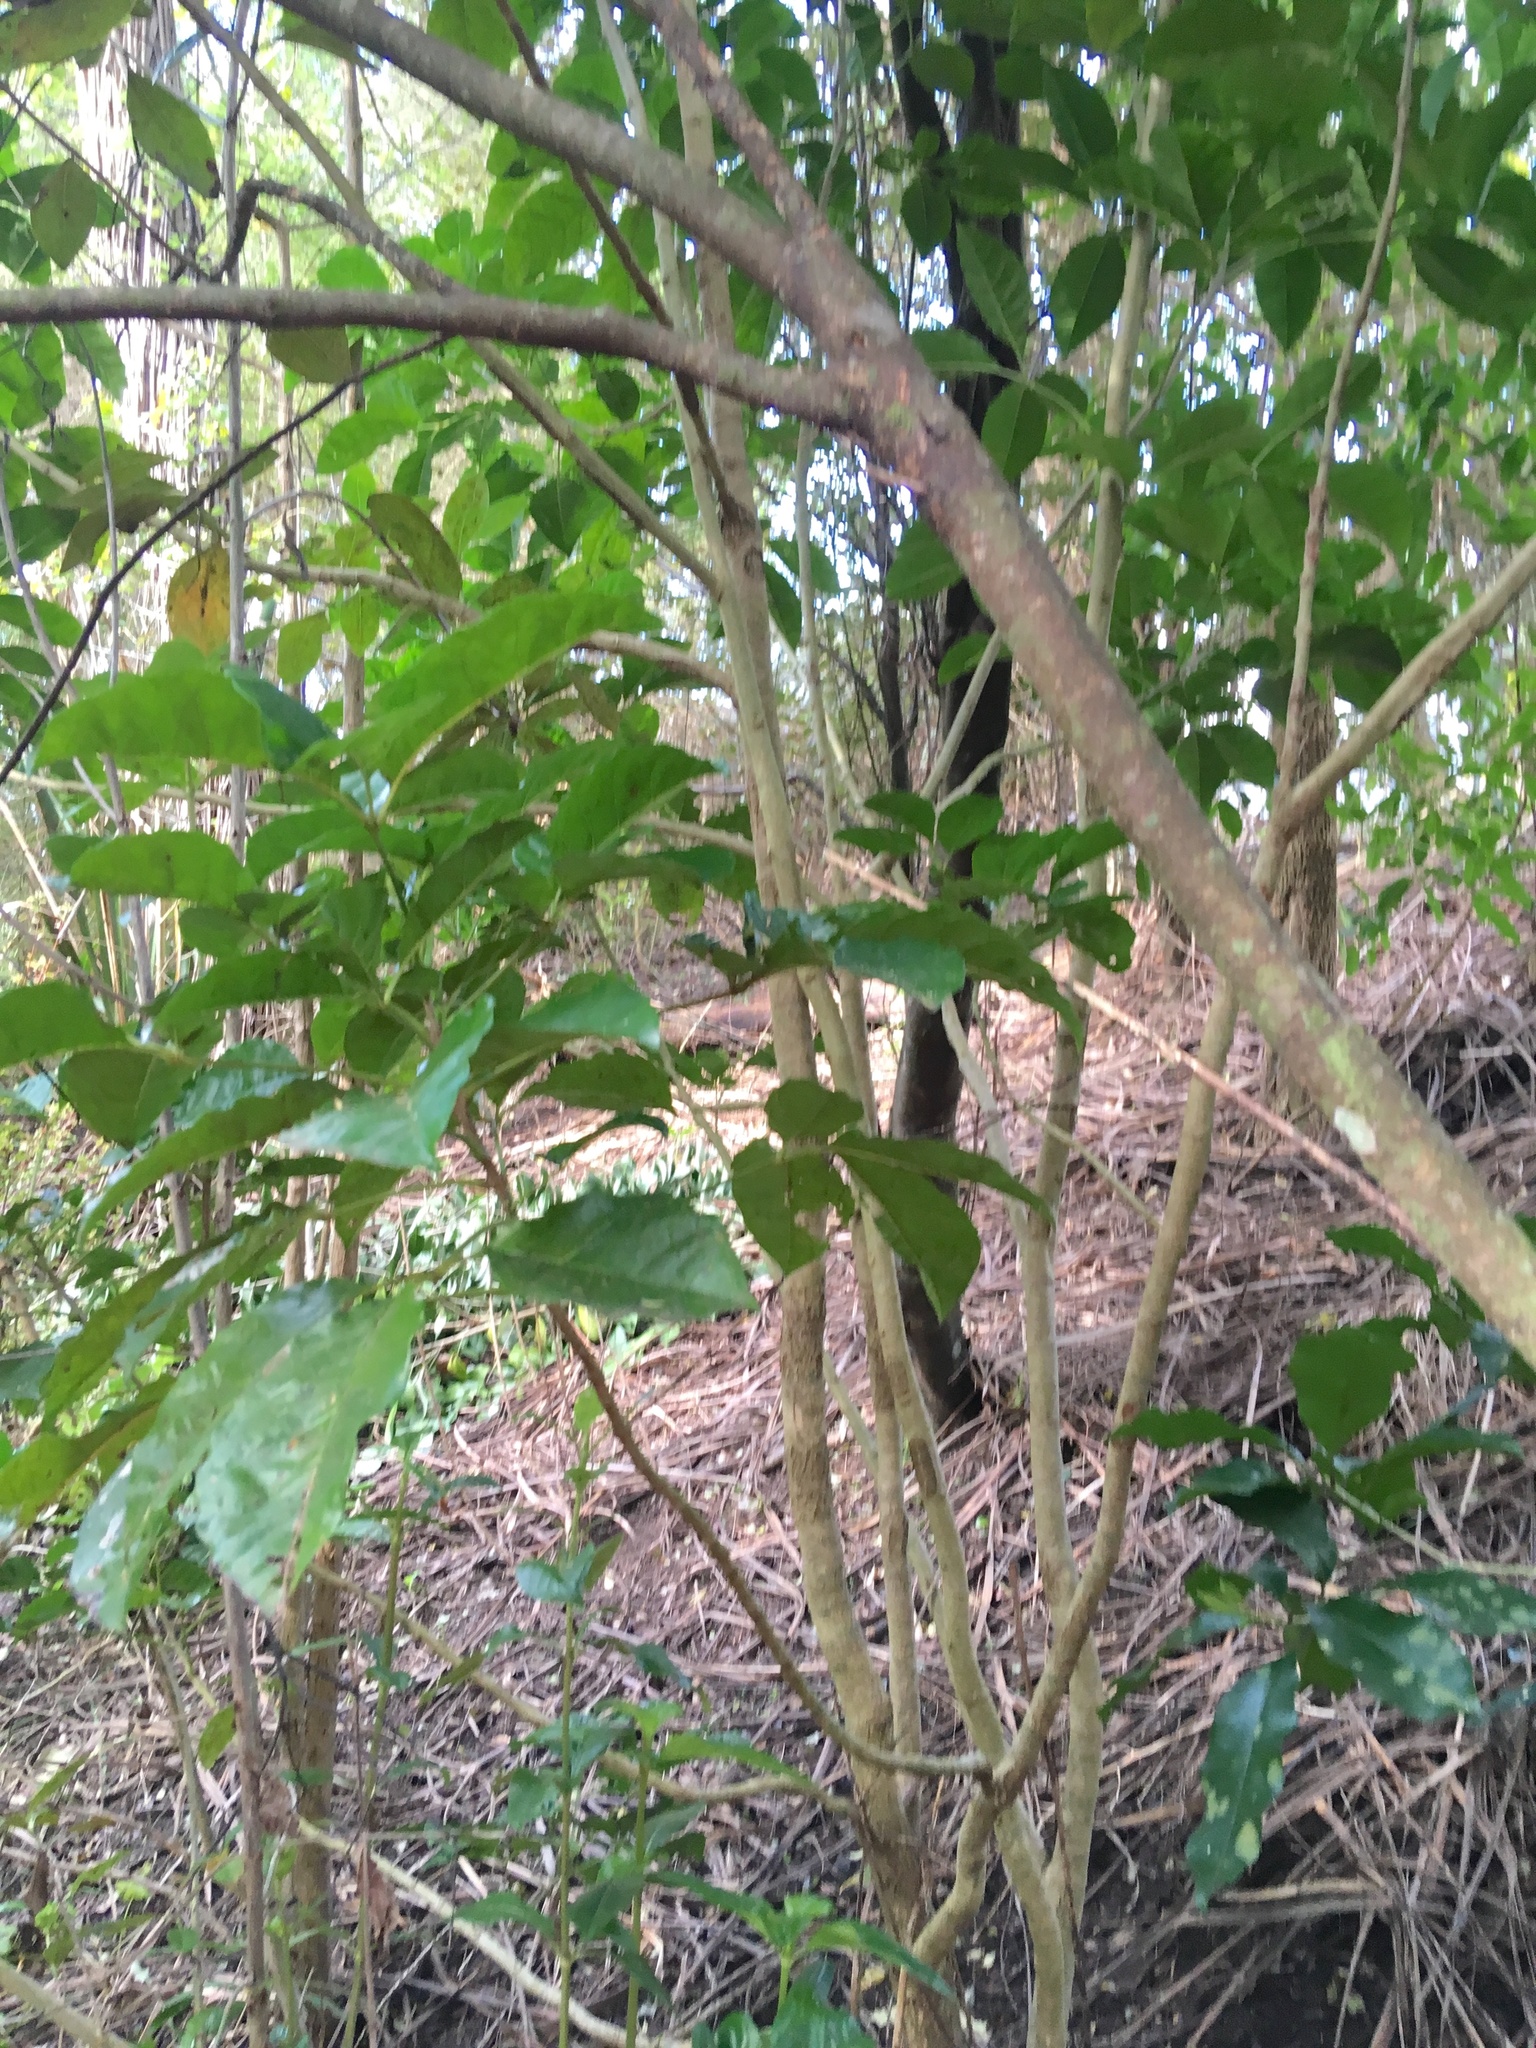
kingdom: Plantae
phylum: Tracheophyta
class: Magnoliopsida
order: Lamiales
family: Lamiaceae
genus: Vitex
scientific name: Vitex lucens
